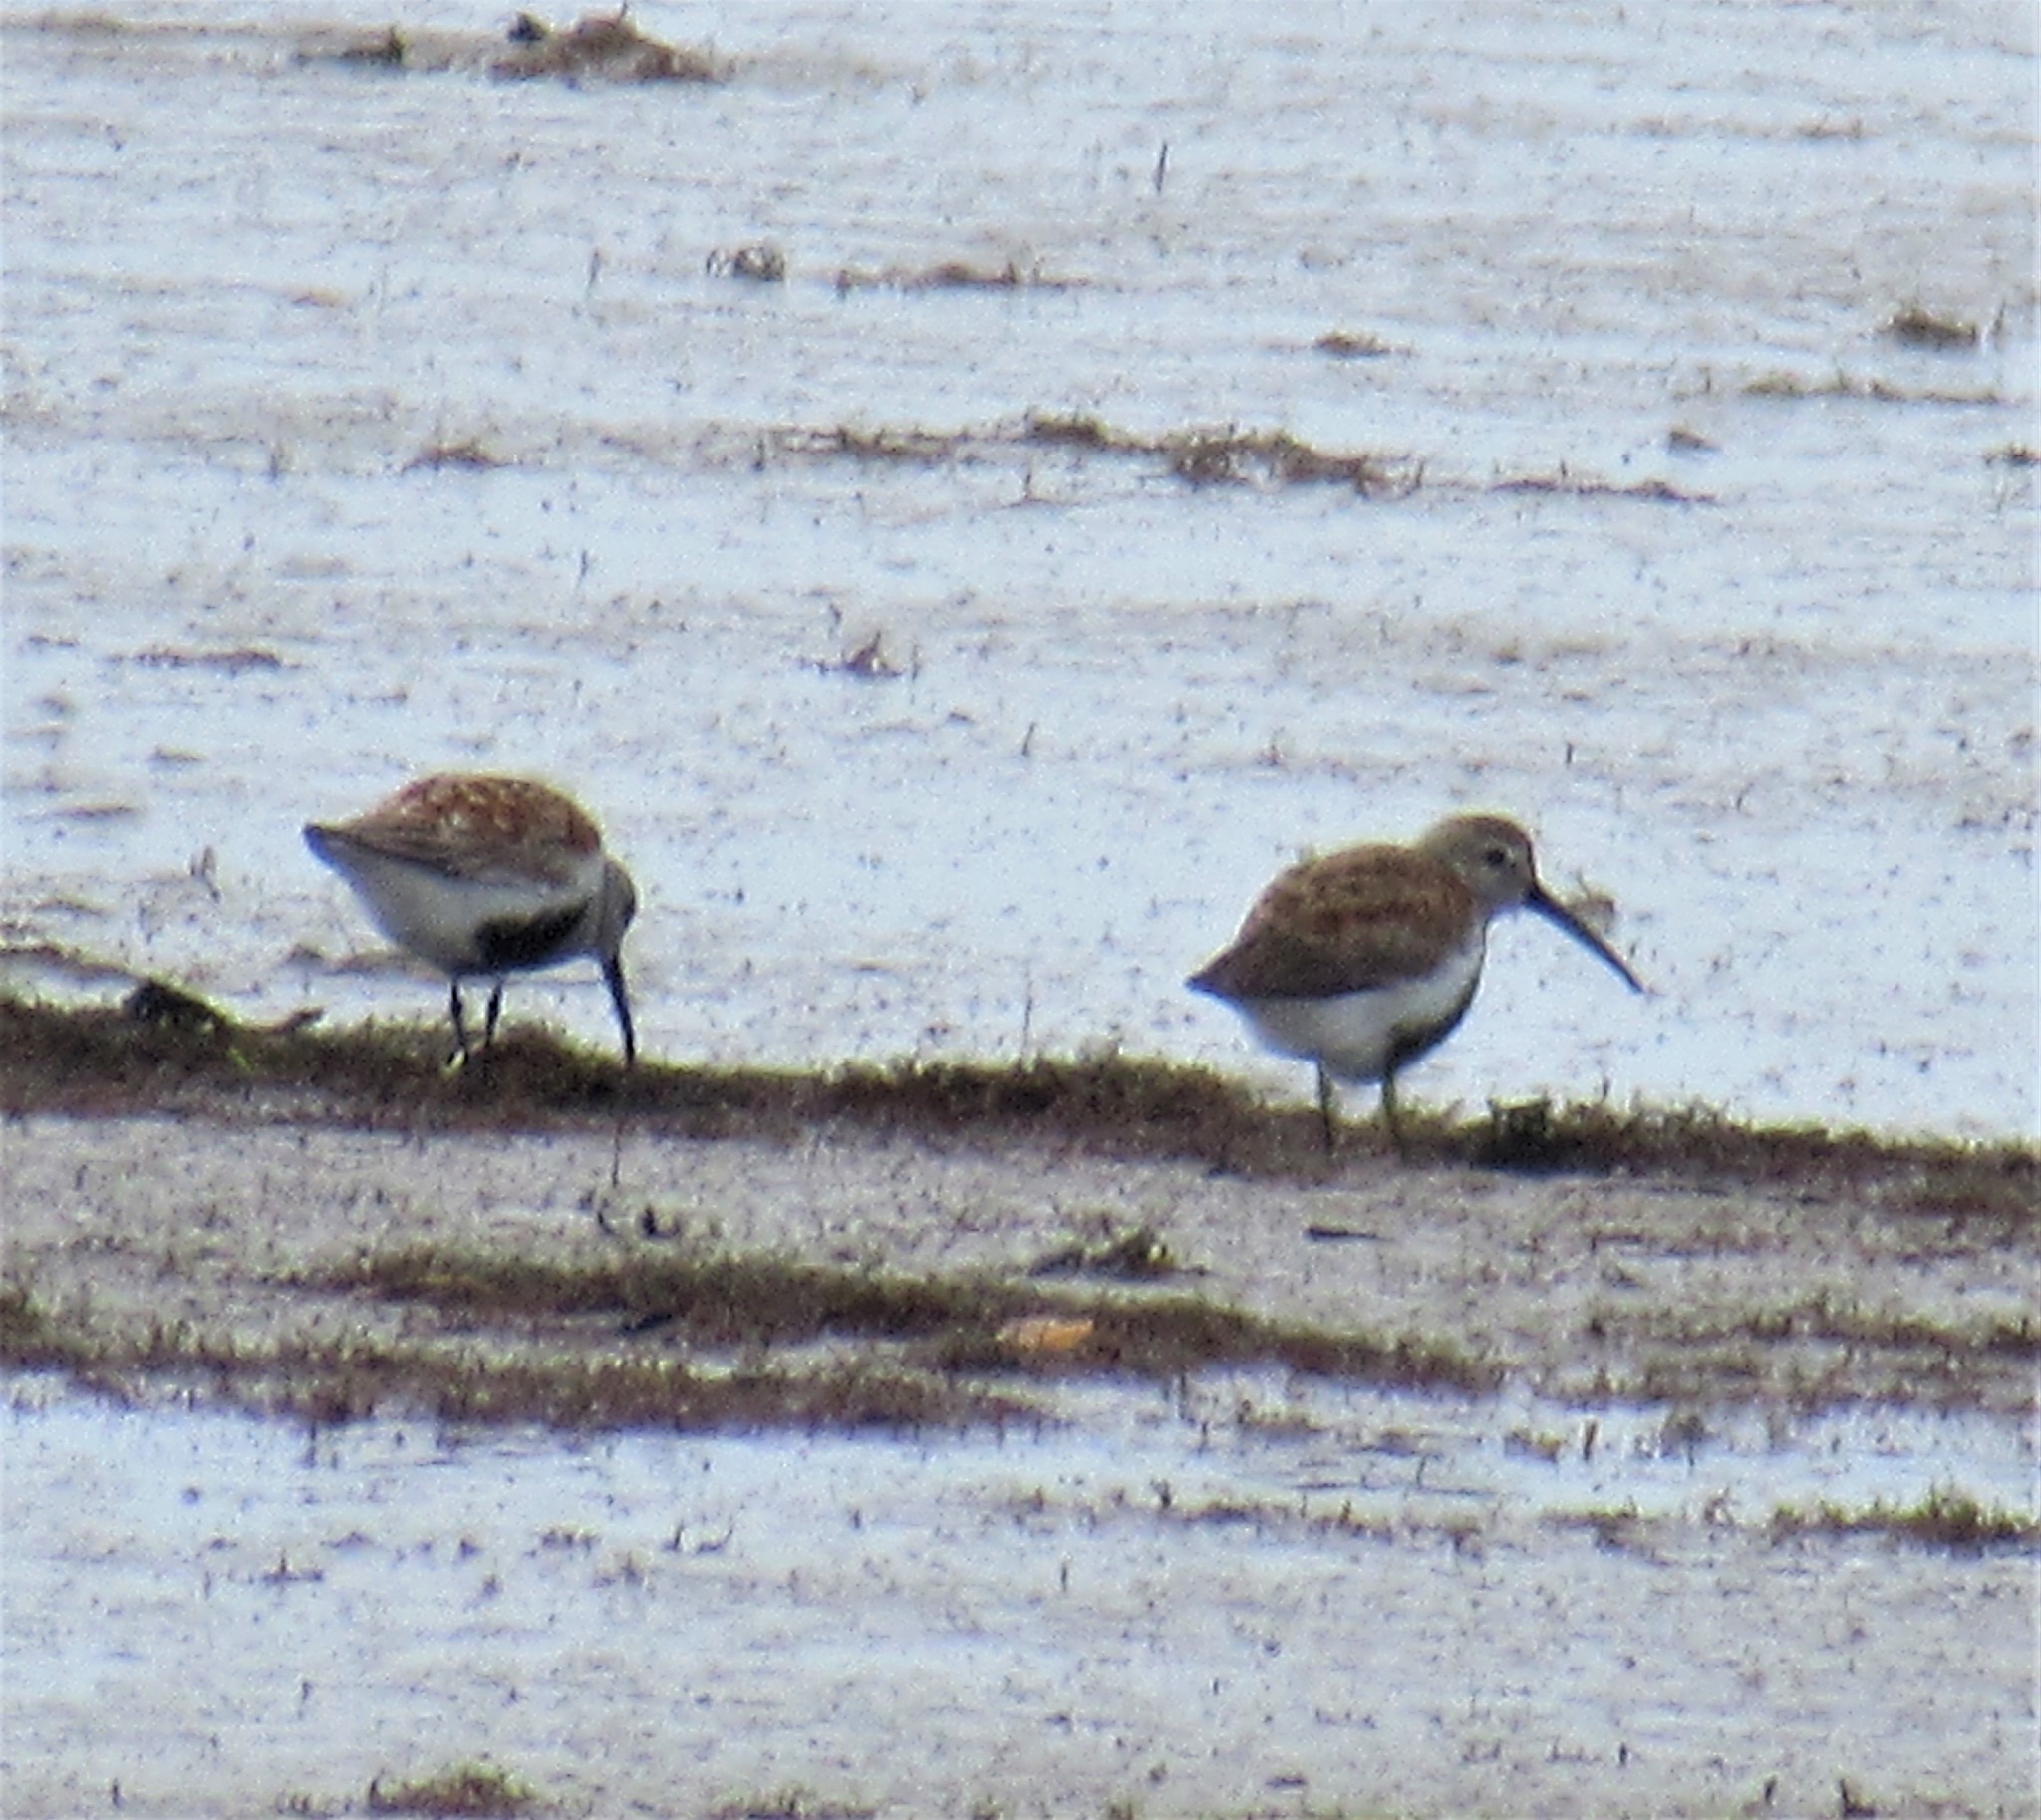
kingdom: Animalia
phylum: Chordata
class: Aves
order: Charadriiformes
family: Scolopacidae
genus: Calidris
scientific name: Calidris alpina
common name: Dunlin
